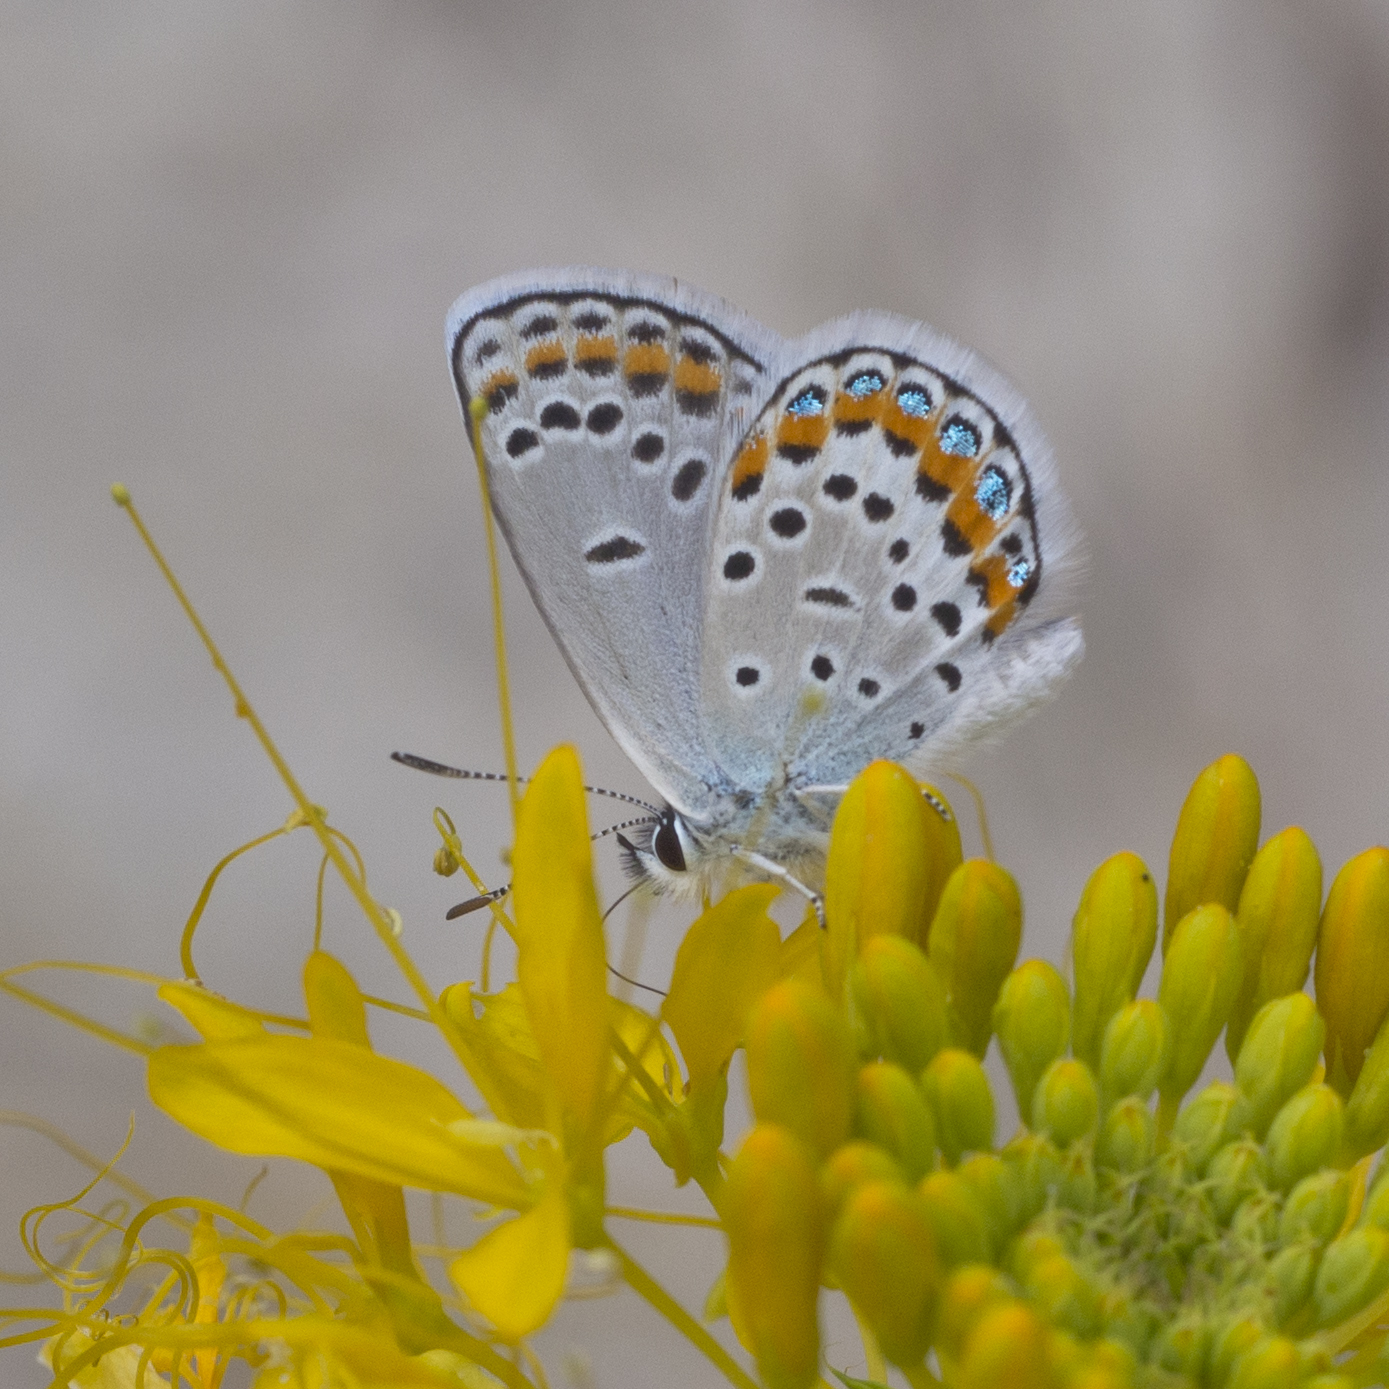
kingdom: Animalia
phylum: Arthropoda
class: Insecta
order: Lepidoptera
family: Lycaenidae
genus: Lycaeides
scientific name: Lycaeides melissa
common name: Melissa blue
